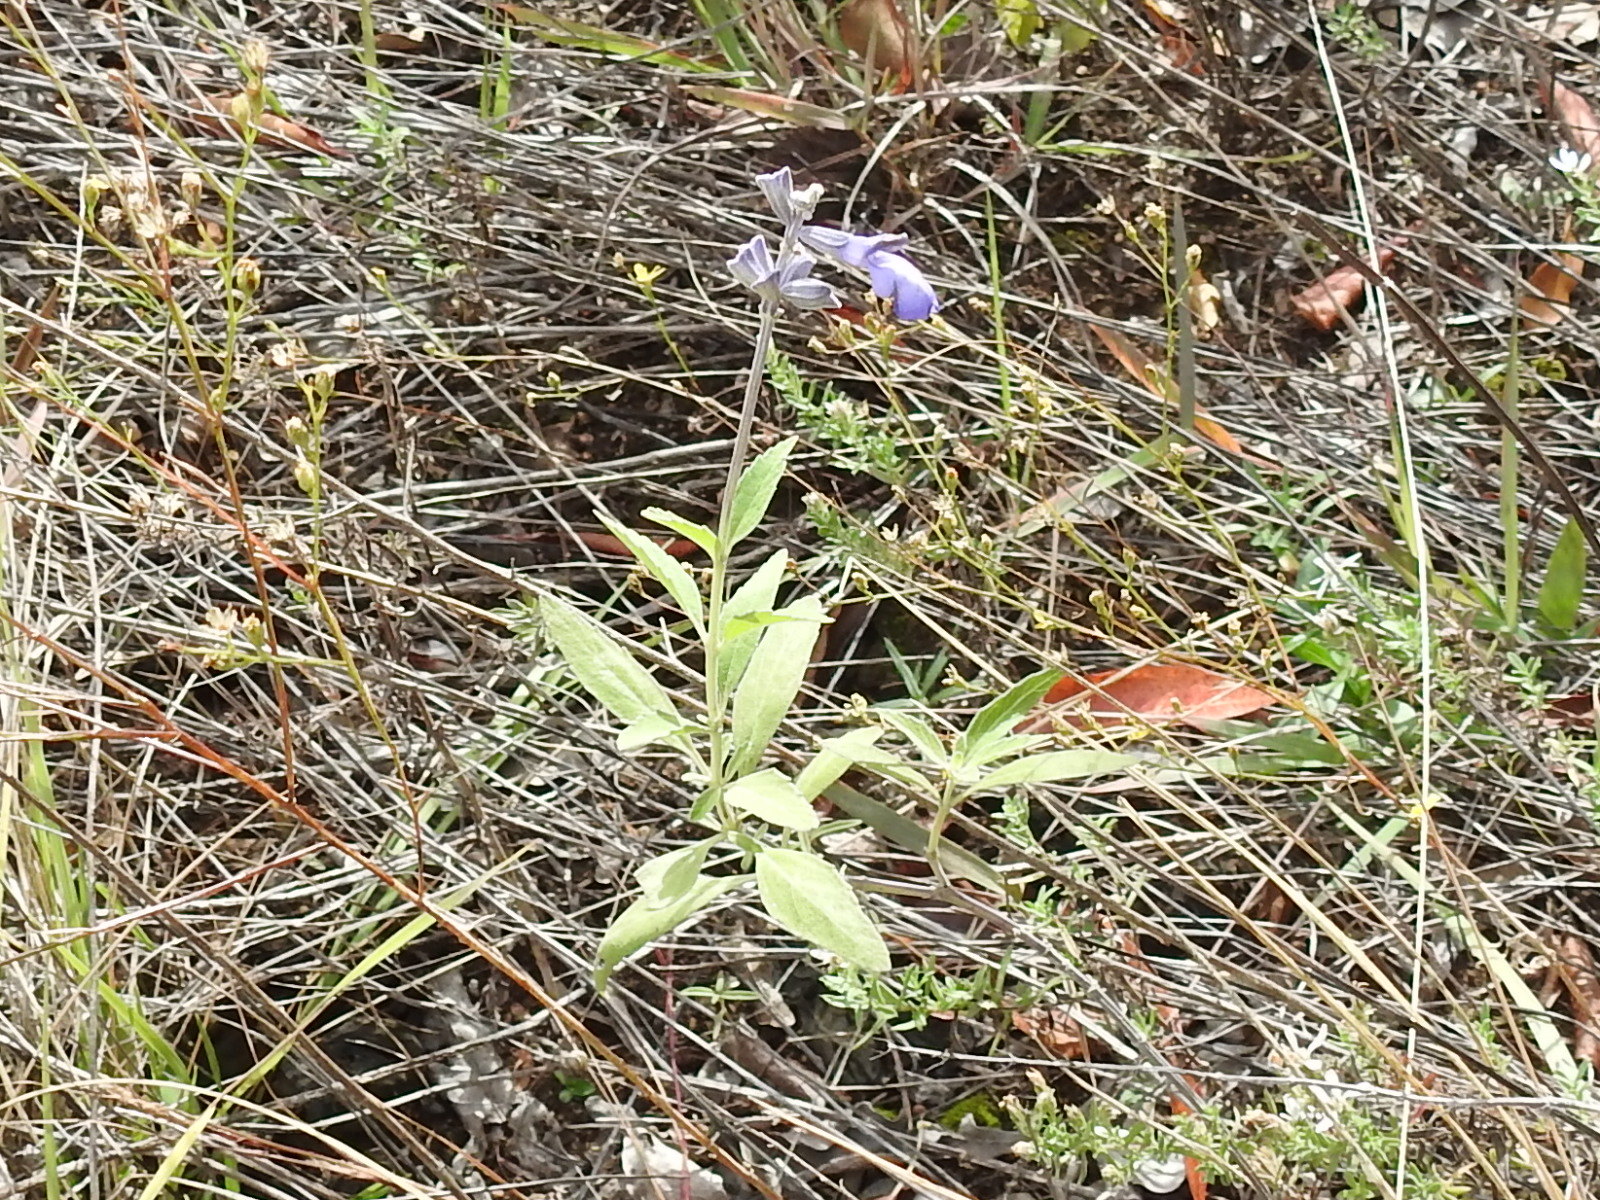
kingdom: Plantae
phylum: Tracheophyta
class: Magnoliopsida
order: Lamiales
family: Lamiaceae
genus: Salvia
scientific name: Salvia farinacea
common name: Mealy sage
